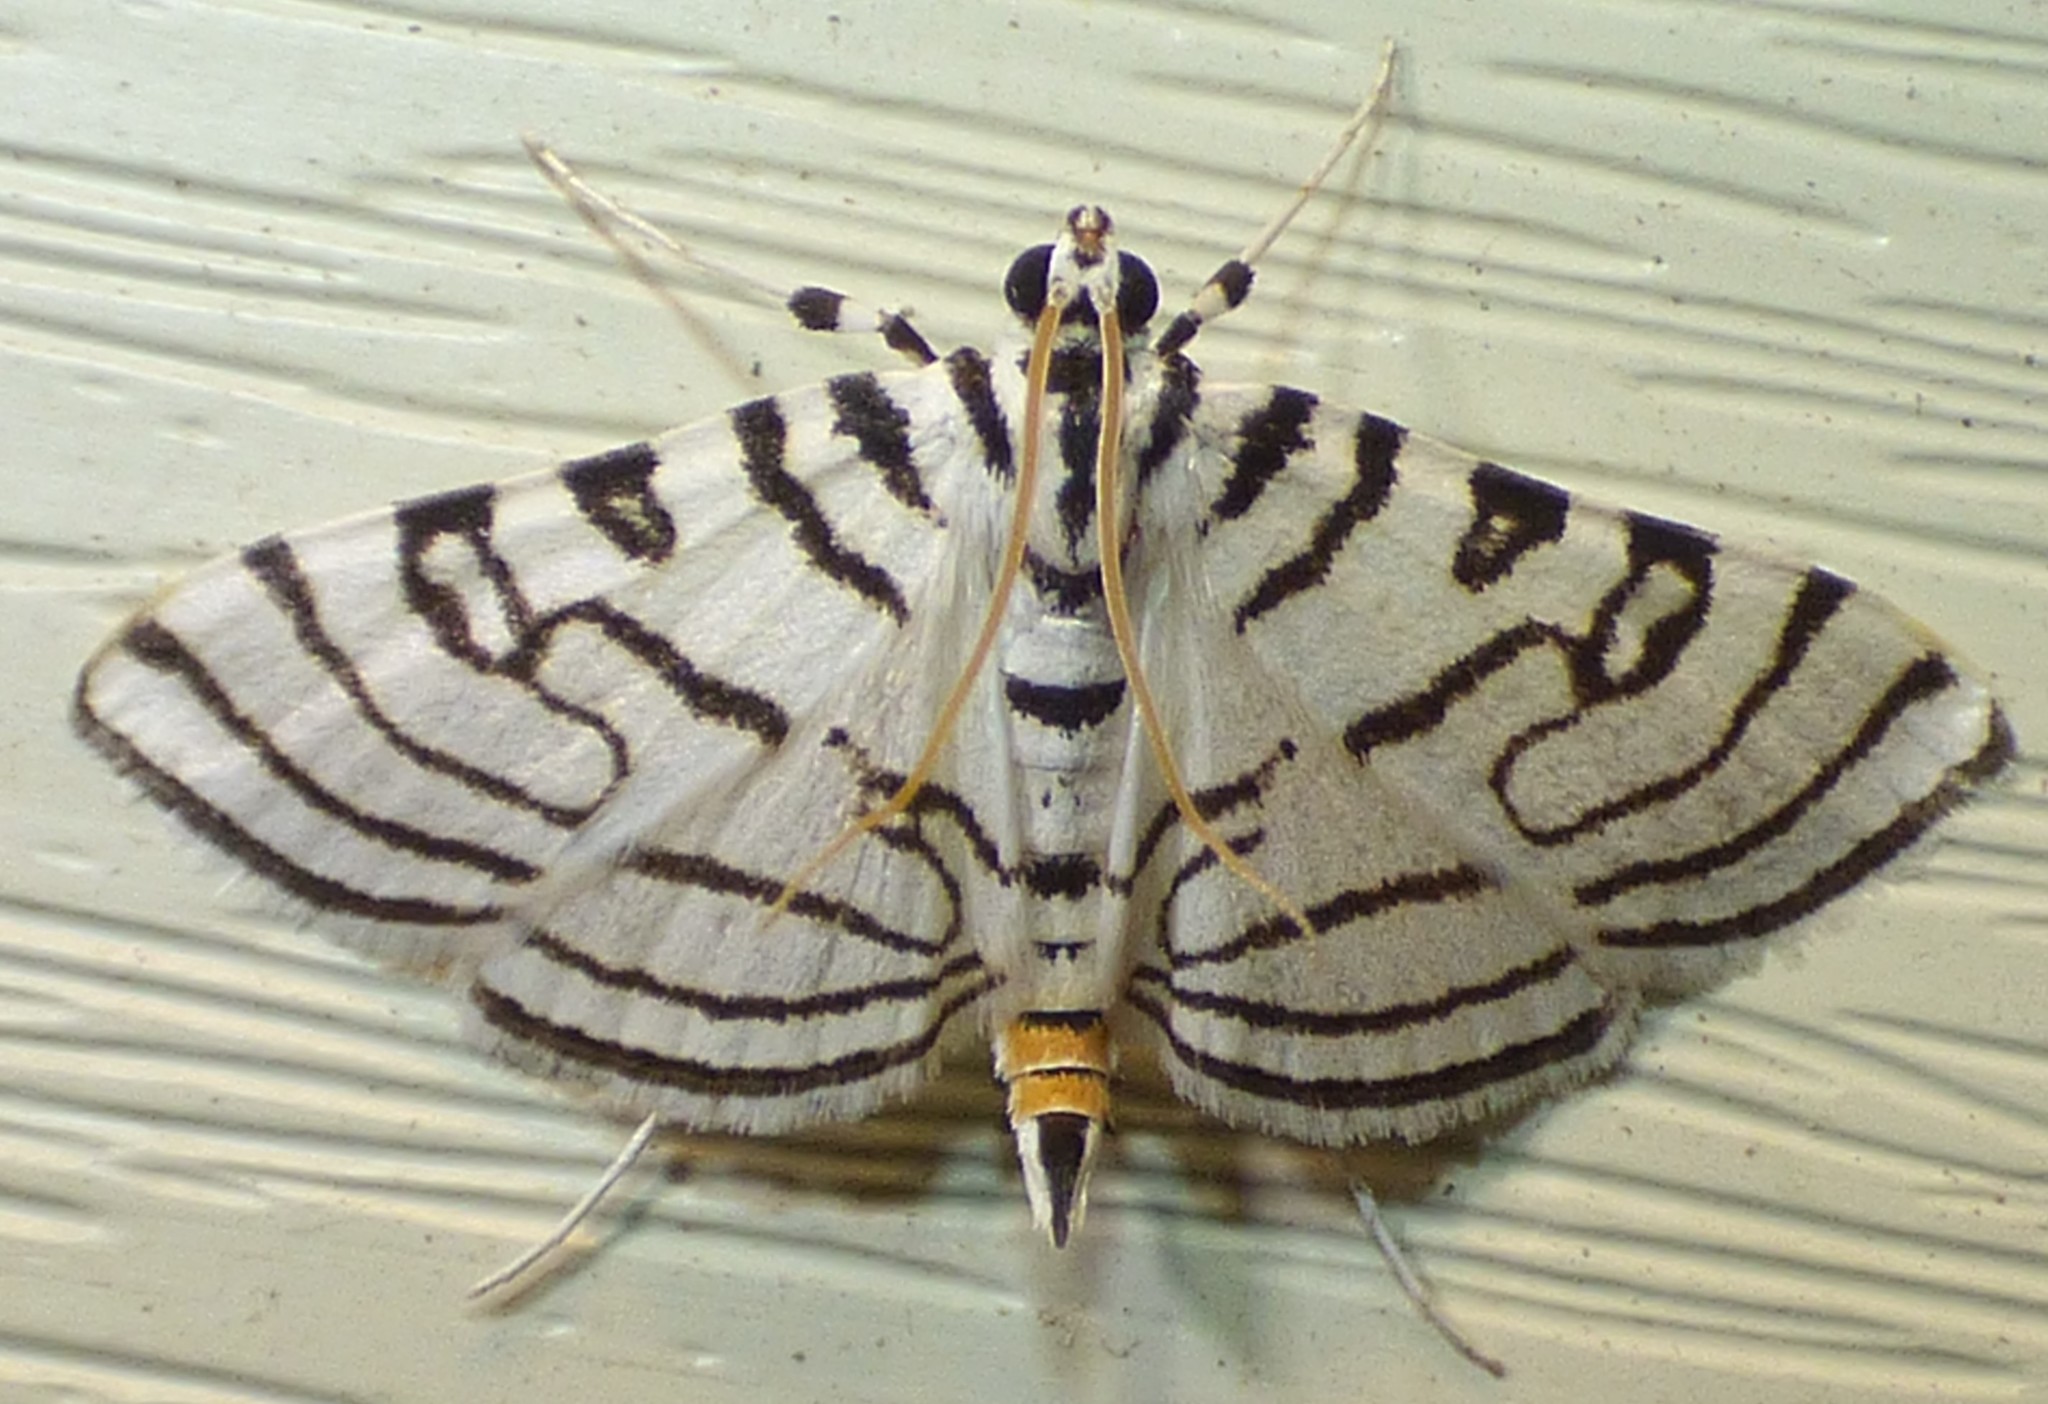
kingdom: Animalia
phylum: Arthropoda
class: Insecta
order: Lepidoptera
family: Crambidae
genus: Conchylodes
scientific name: Conchylodes concinnalis
